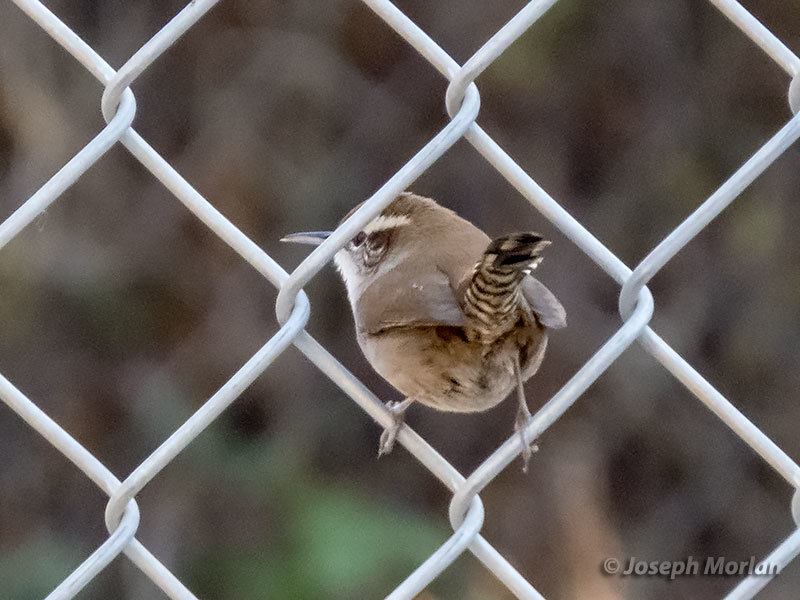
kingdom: Animalia
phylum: Chordata
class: Aves
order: Passeriformes
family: Troglodytidae
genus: Thryomanes
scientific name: Thryomanes bewickii
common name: Bewick's wren
